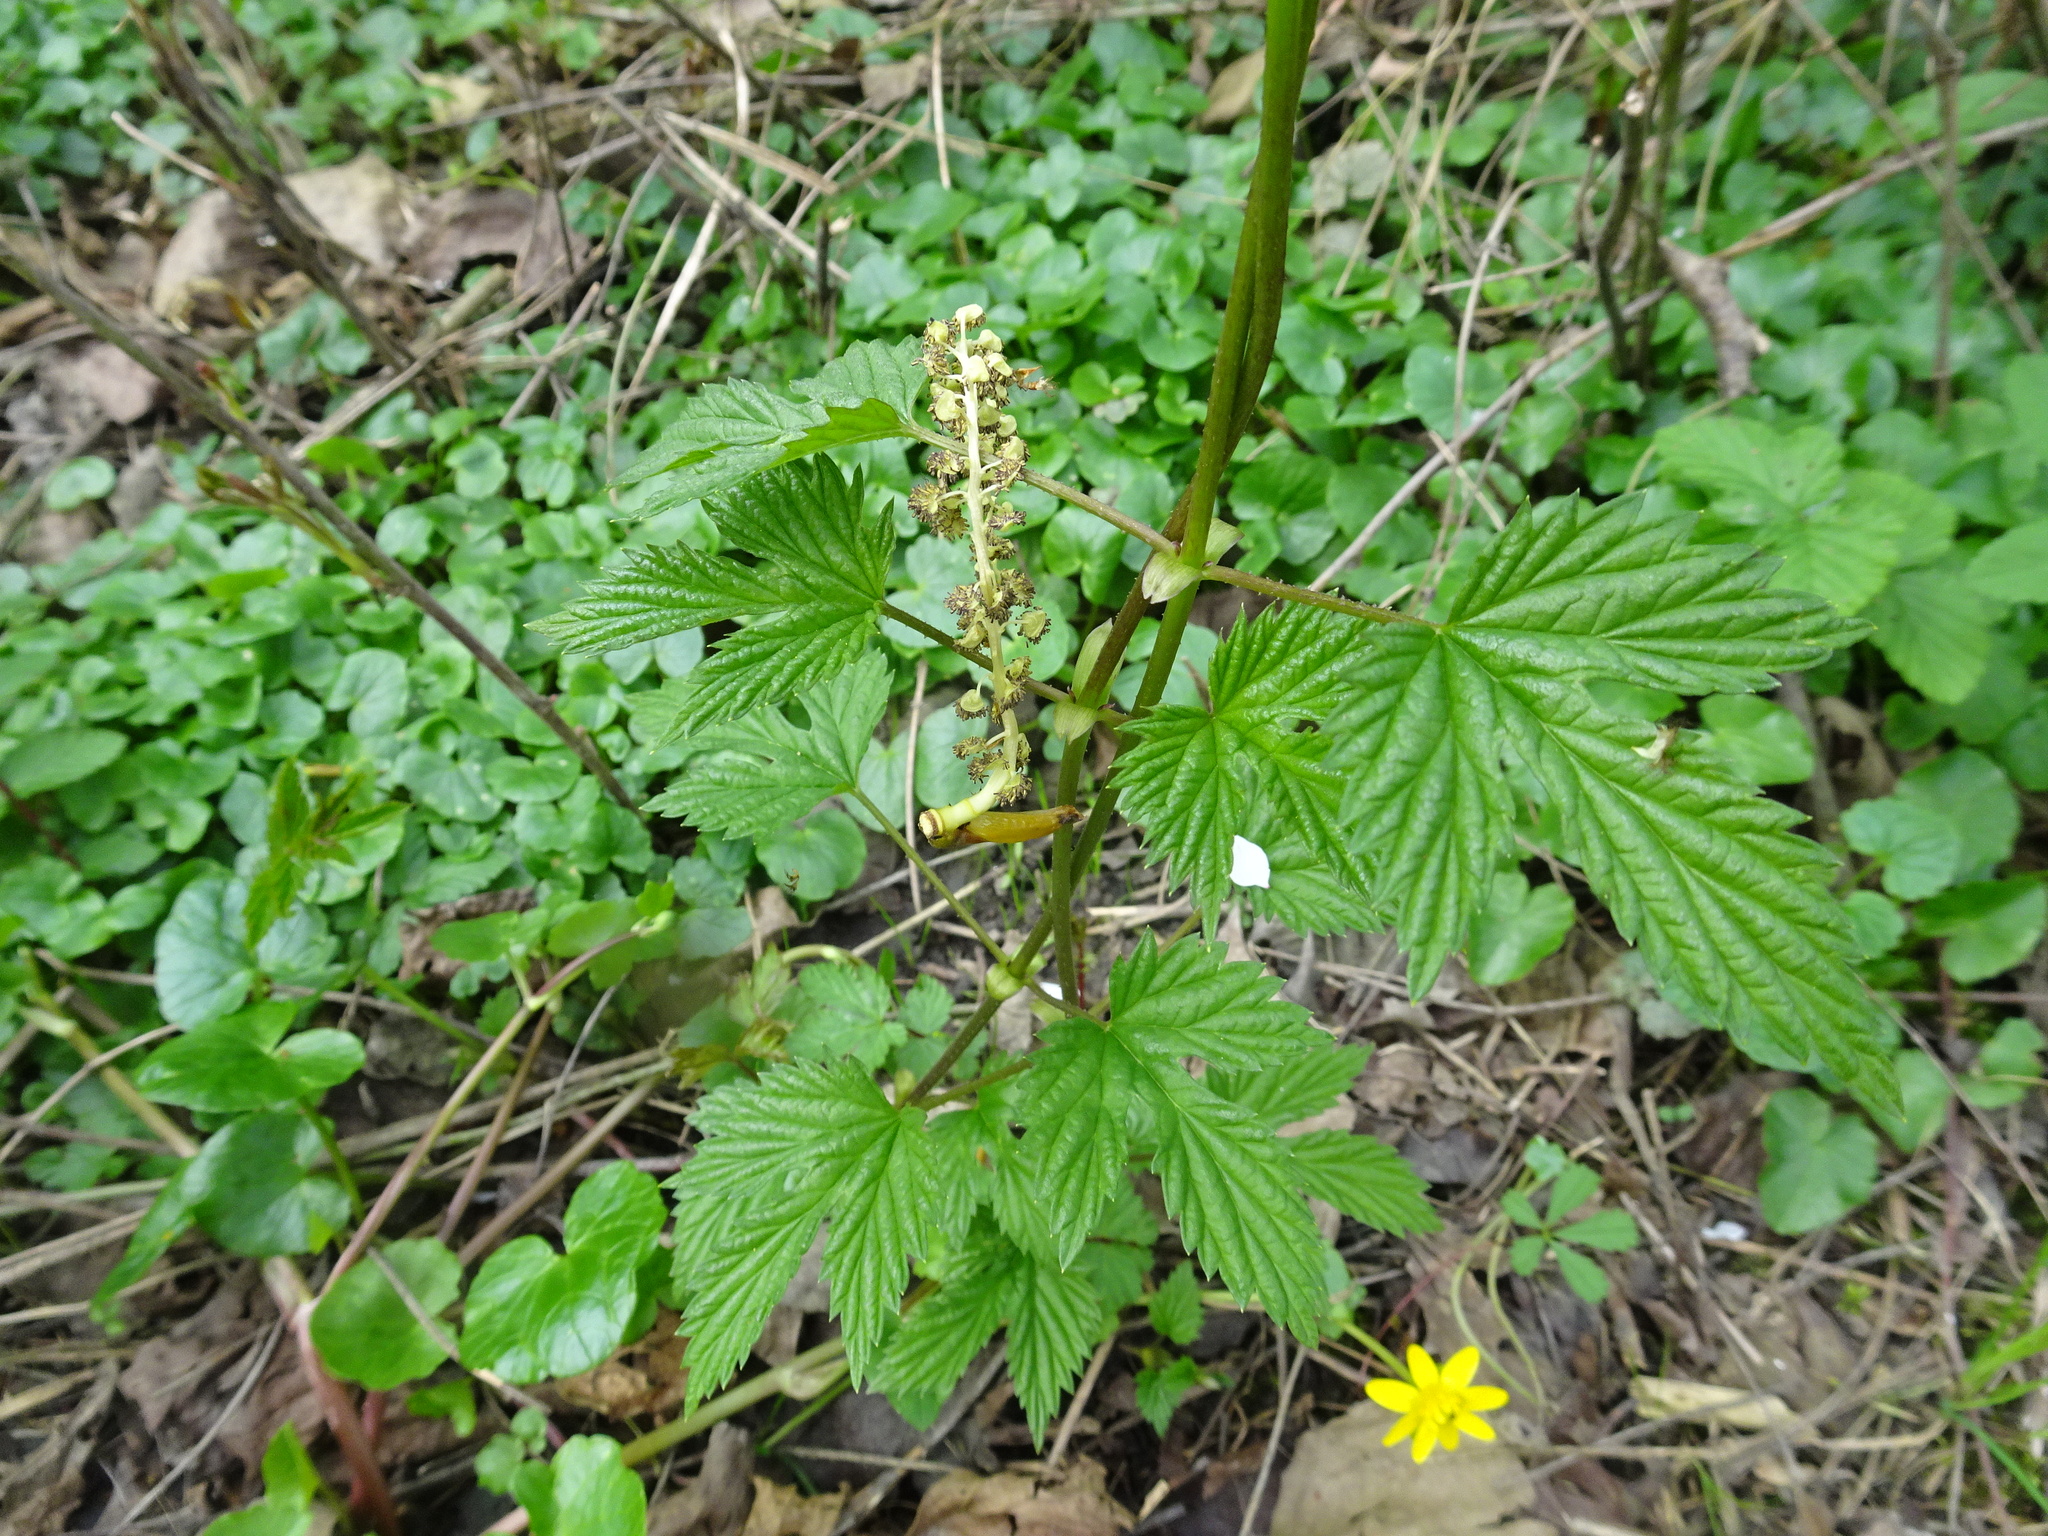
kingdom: Plantae
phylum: Tracheophyta
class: Magnoliopsida
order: Rosales
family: Cannabaceae
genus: Humulus
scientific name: Humulus lupulus
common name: Hop
